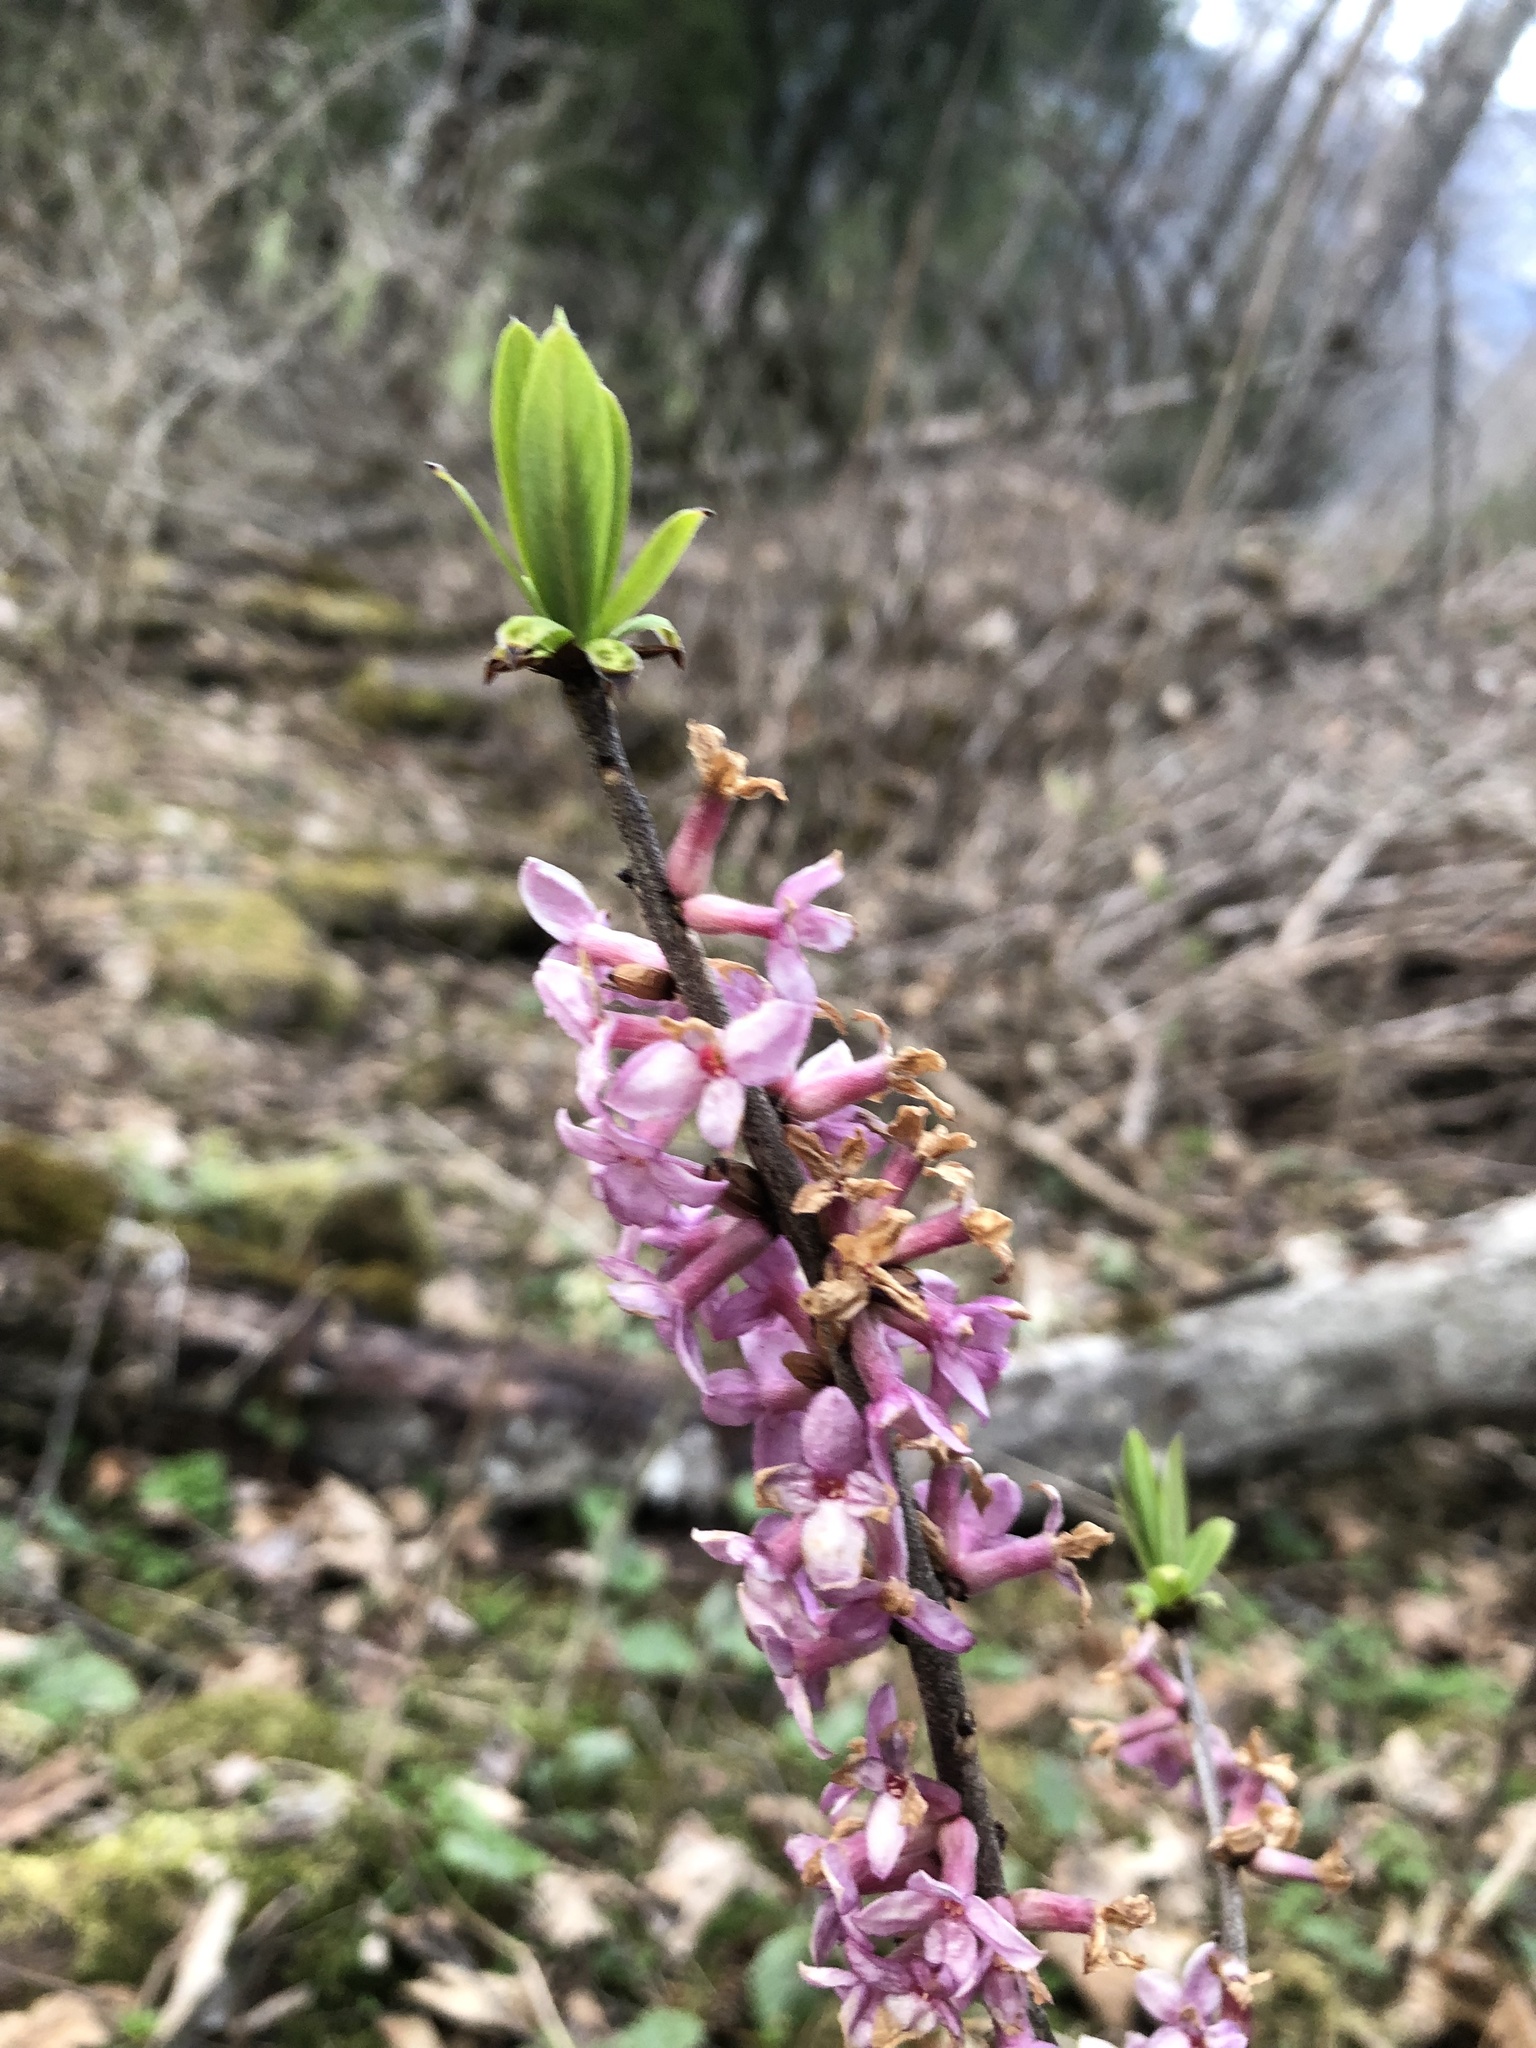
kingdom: Plantae
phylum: Tracheophyta
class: Magnoliopsida
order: Malvales
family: Thymelaeaceae
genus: Daphne
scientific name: Daphne mezereum
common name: Mezereon
